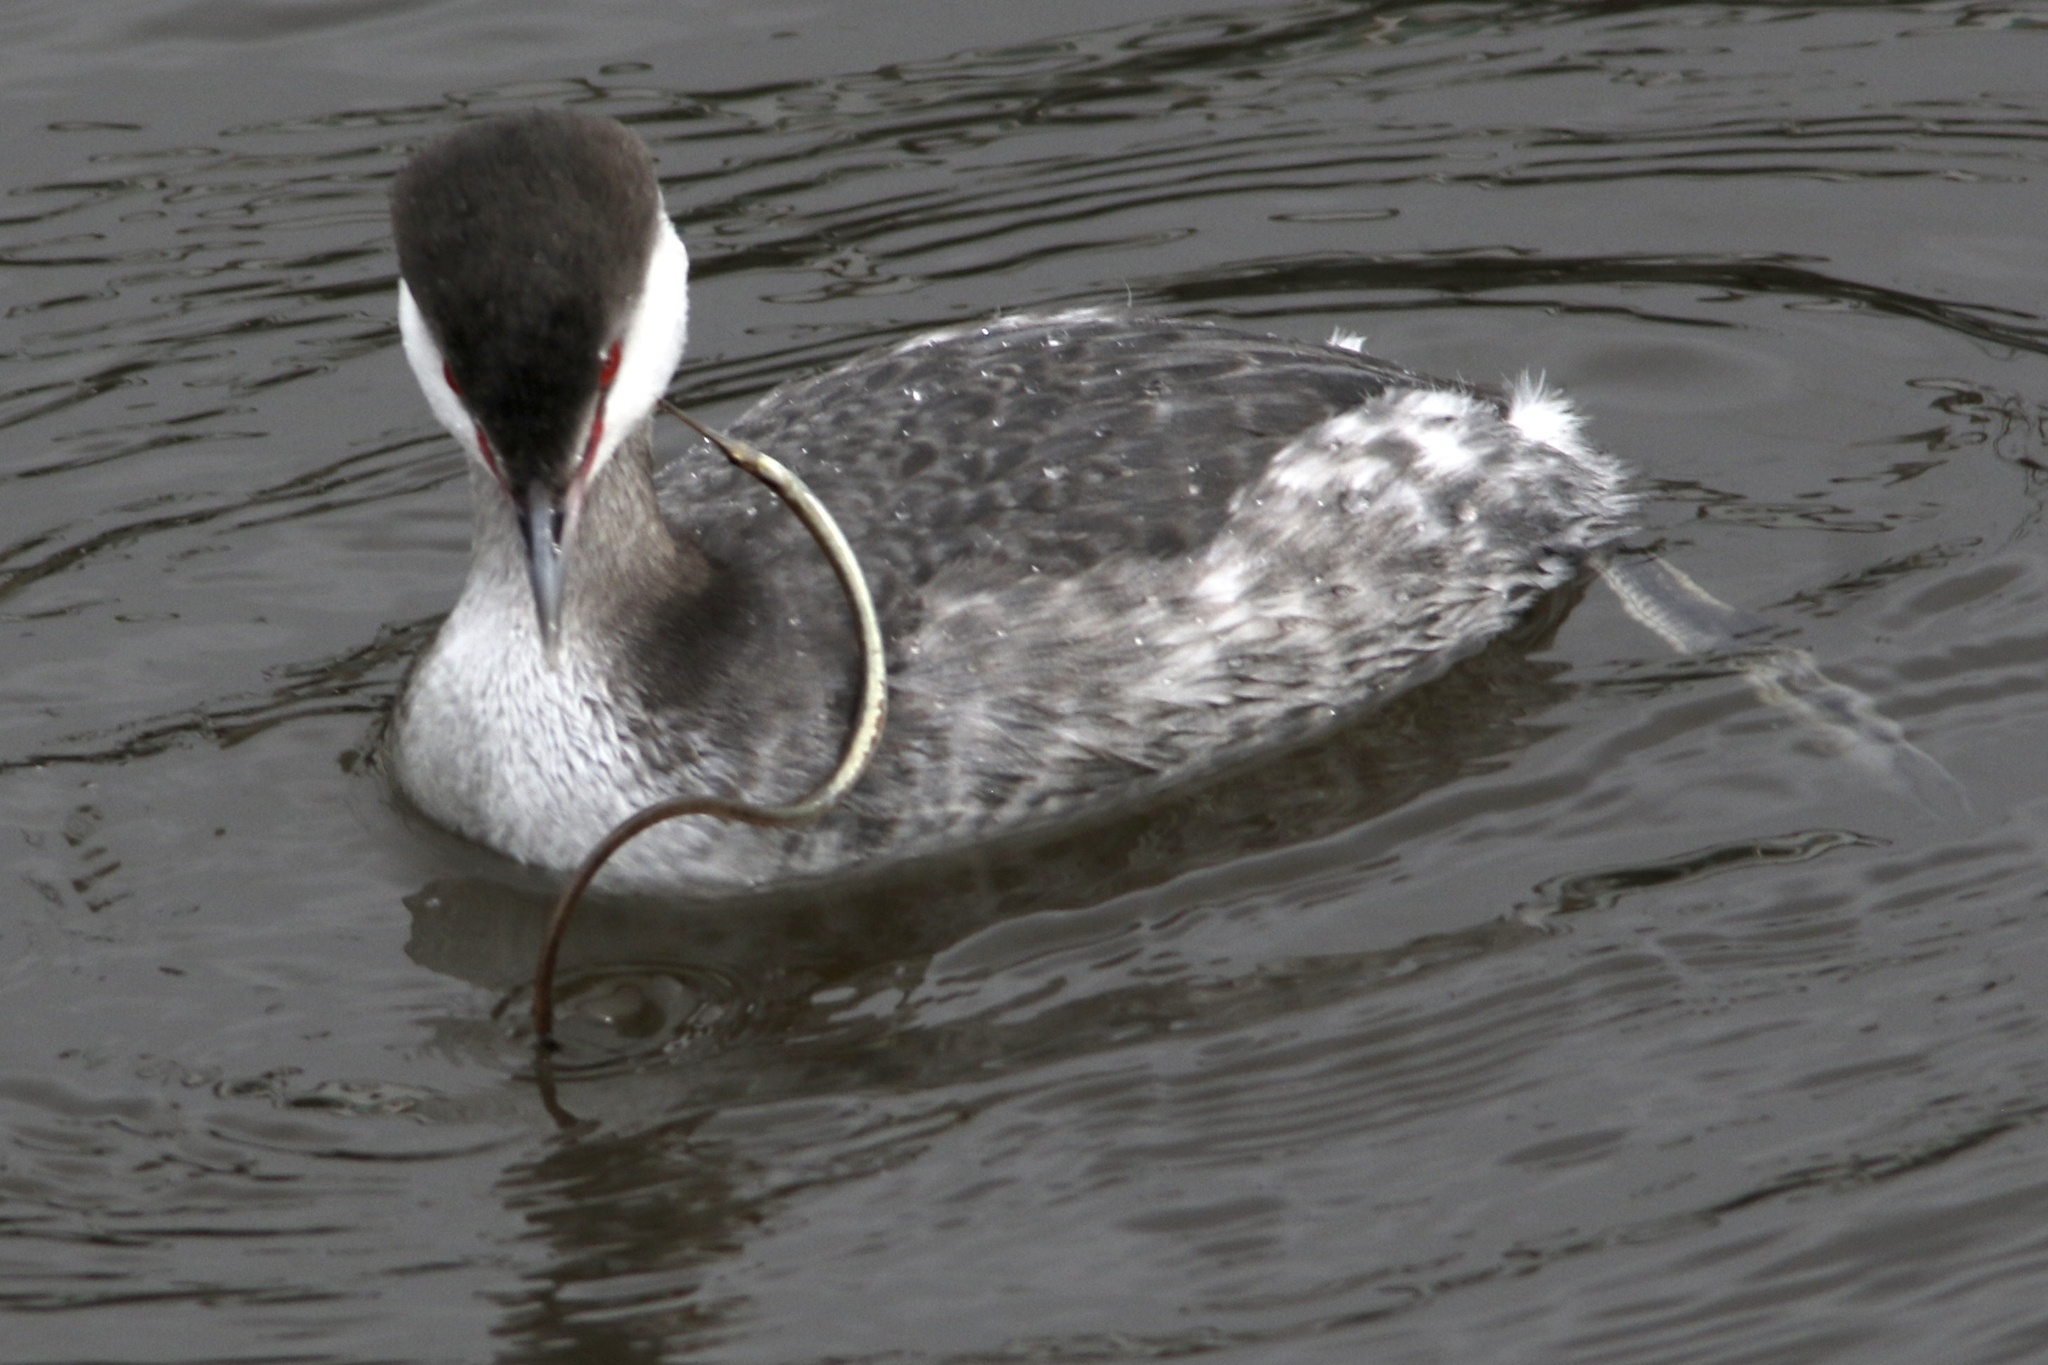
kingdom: Animalia
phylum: Chordata
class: Aves
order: Podicipediformes
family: Podicipedidae
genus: Podiceps
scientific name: Podiceps auritus
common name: Horned grebe
